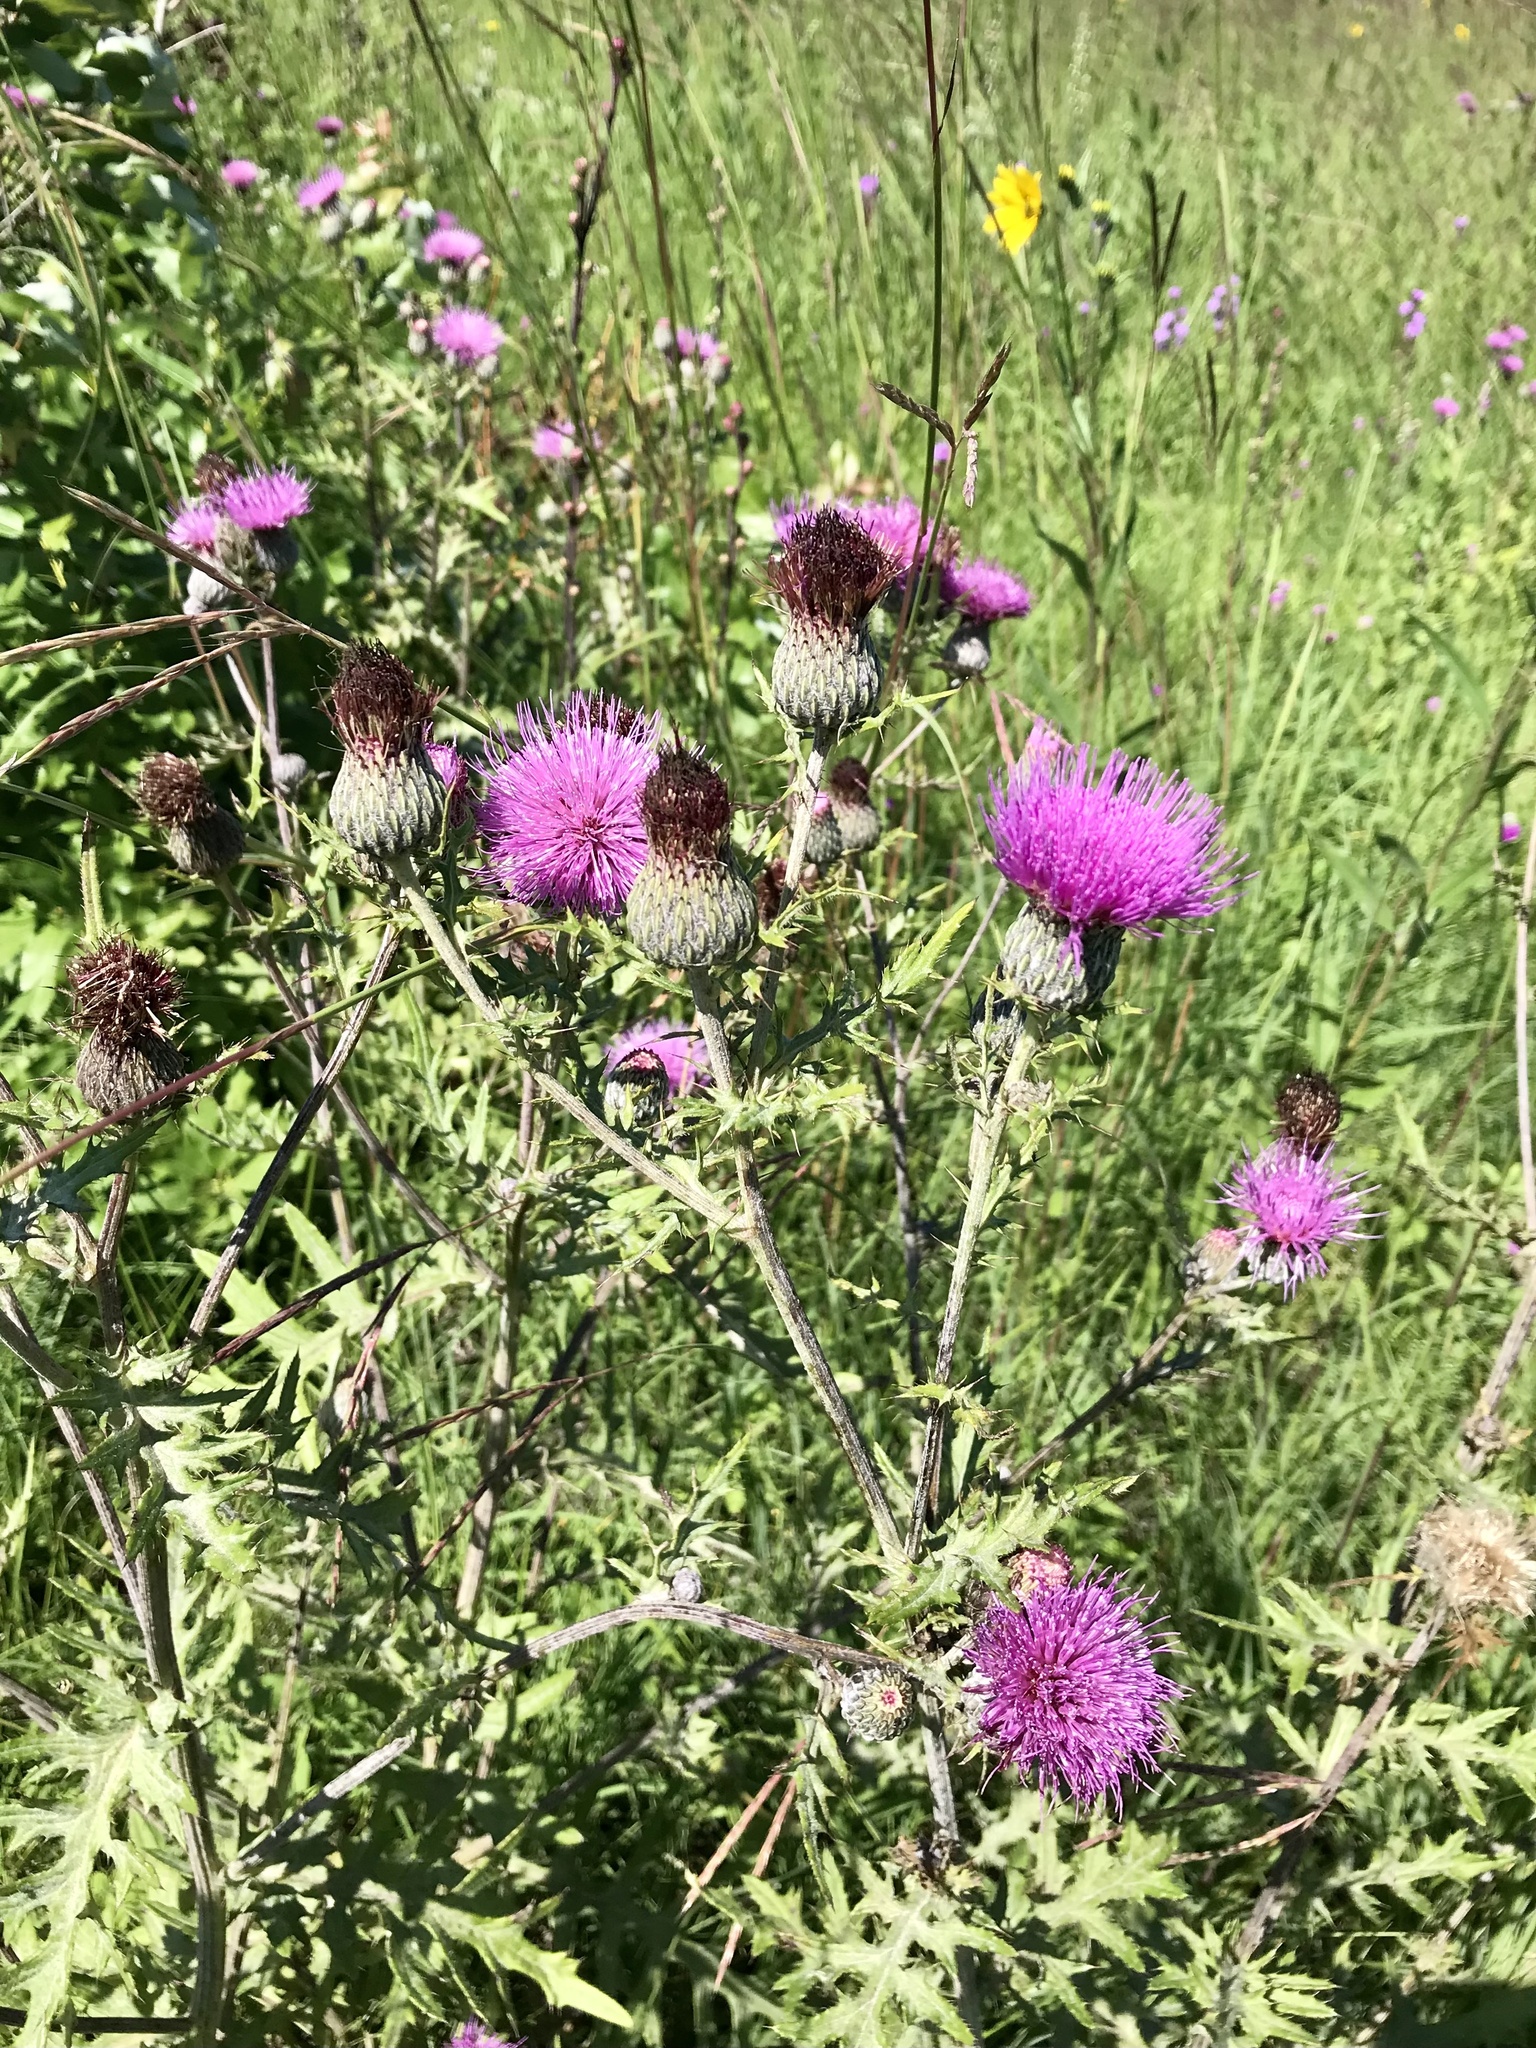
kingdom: Plantae
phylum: Tracheophyta
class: Magnoliopsida
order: Asterales
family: Asteraceae
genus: Cirsium
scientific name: Cirsium muticum
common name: Dunce-nettle
